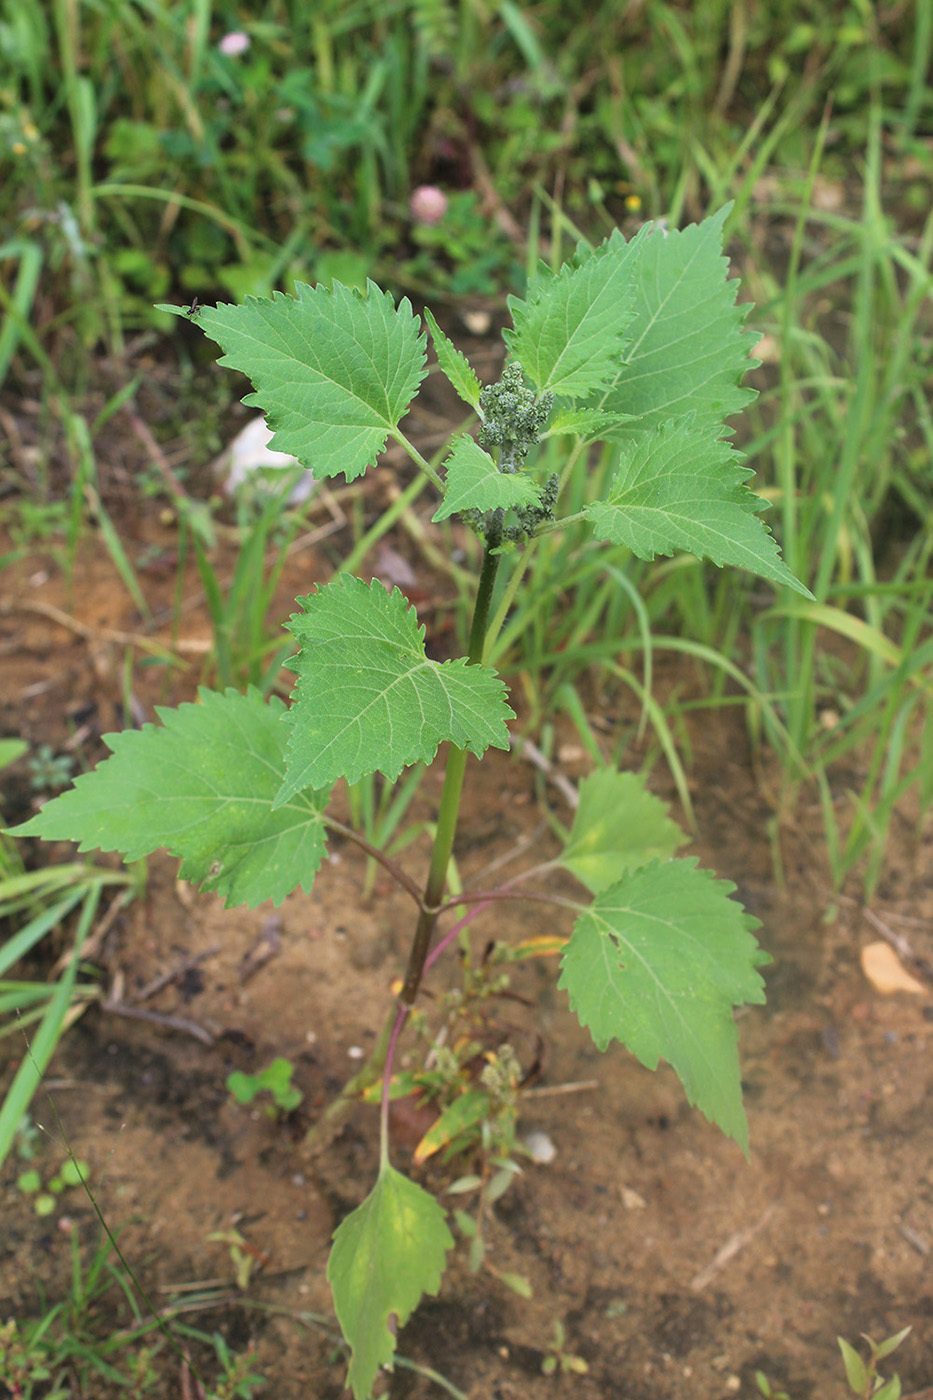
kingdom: Plantae
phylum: Tracheophyta
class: Magnoliopsida
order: Asterales
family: Asteraceae
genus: Cyclachaena
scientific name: Cyclachaena xanthiifolia
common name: Giant sumpweed
